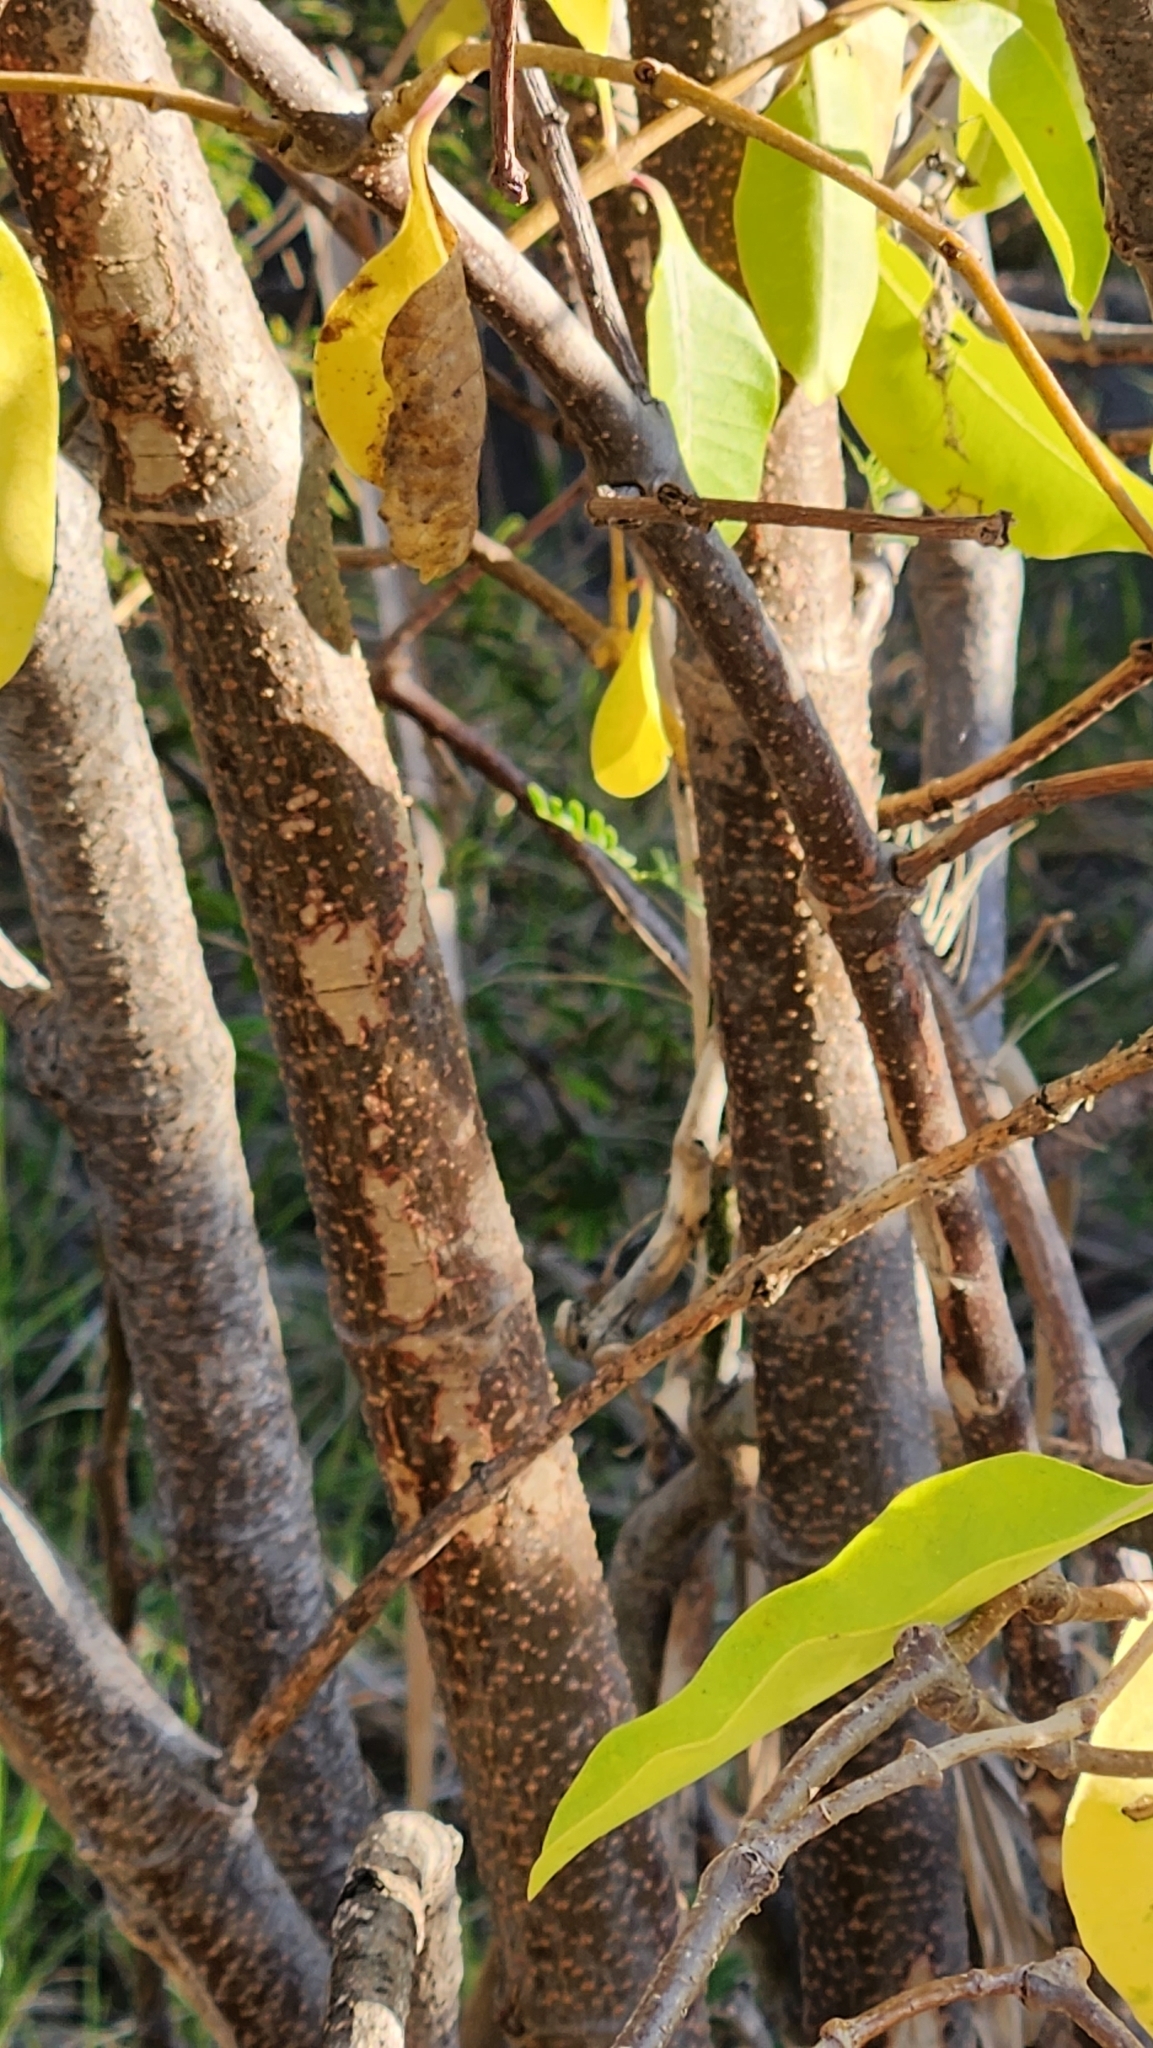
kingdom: Plantae
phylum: Tracheophyta
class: Magnoliopsida
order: Gentianales
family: Apocynaceae
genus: Cryptostegia
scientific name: Cryptostegia grandiflora
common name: Palay rubbervine
